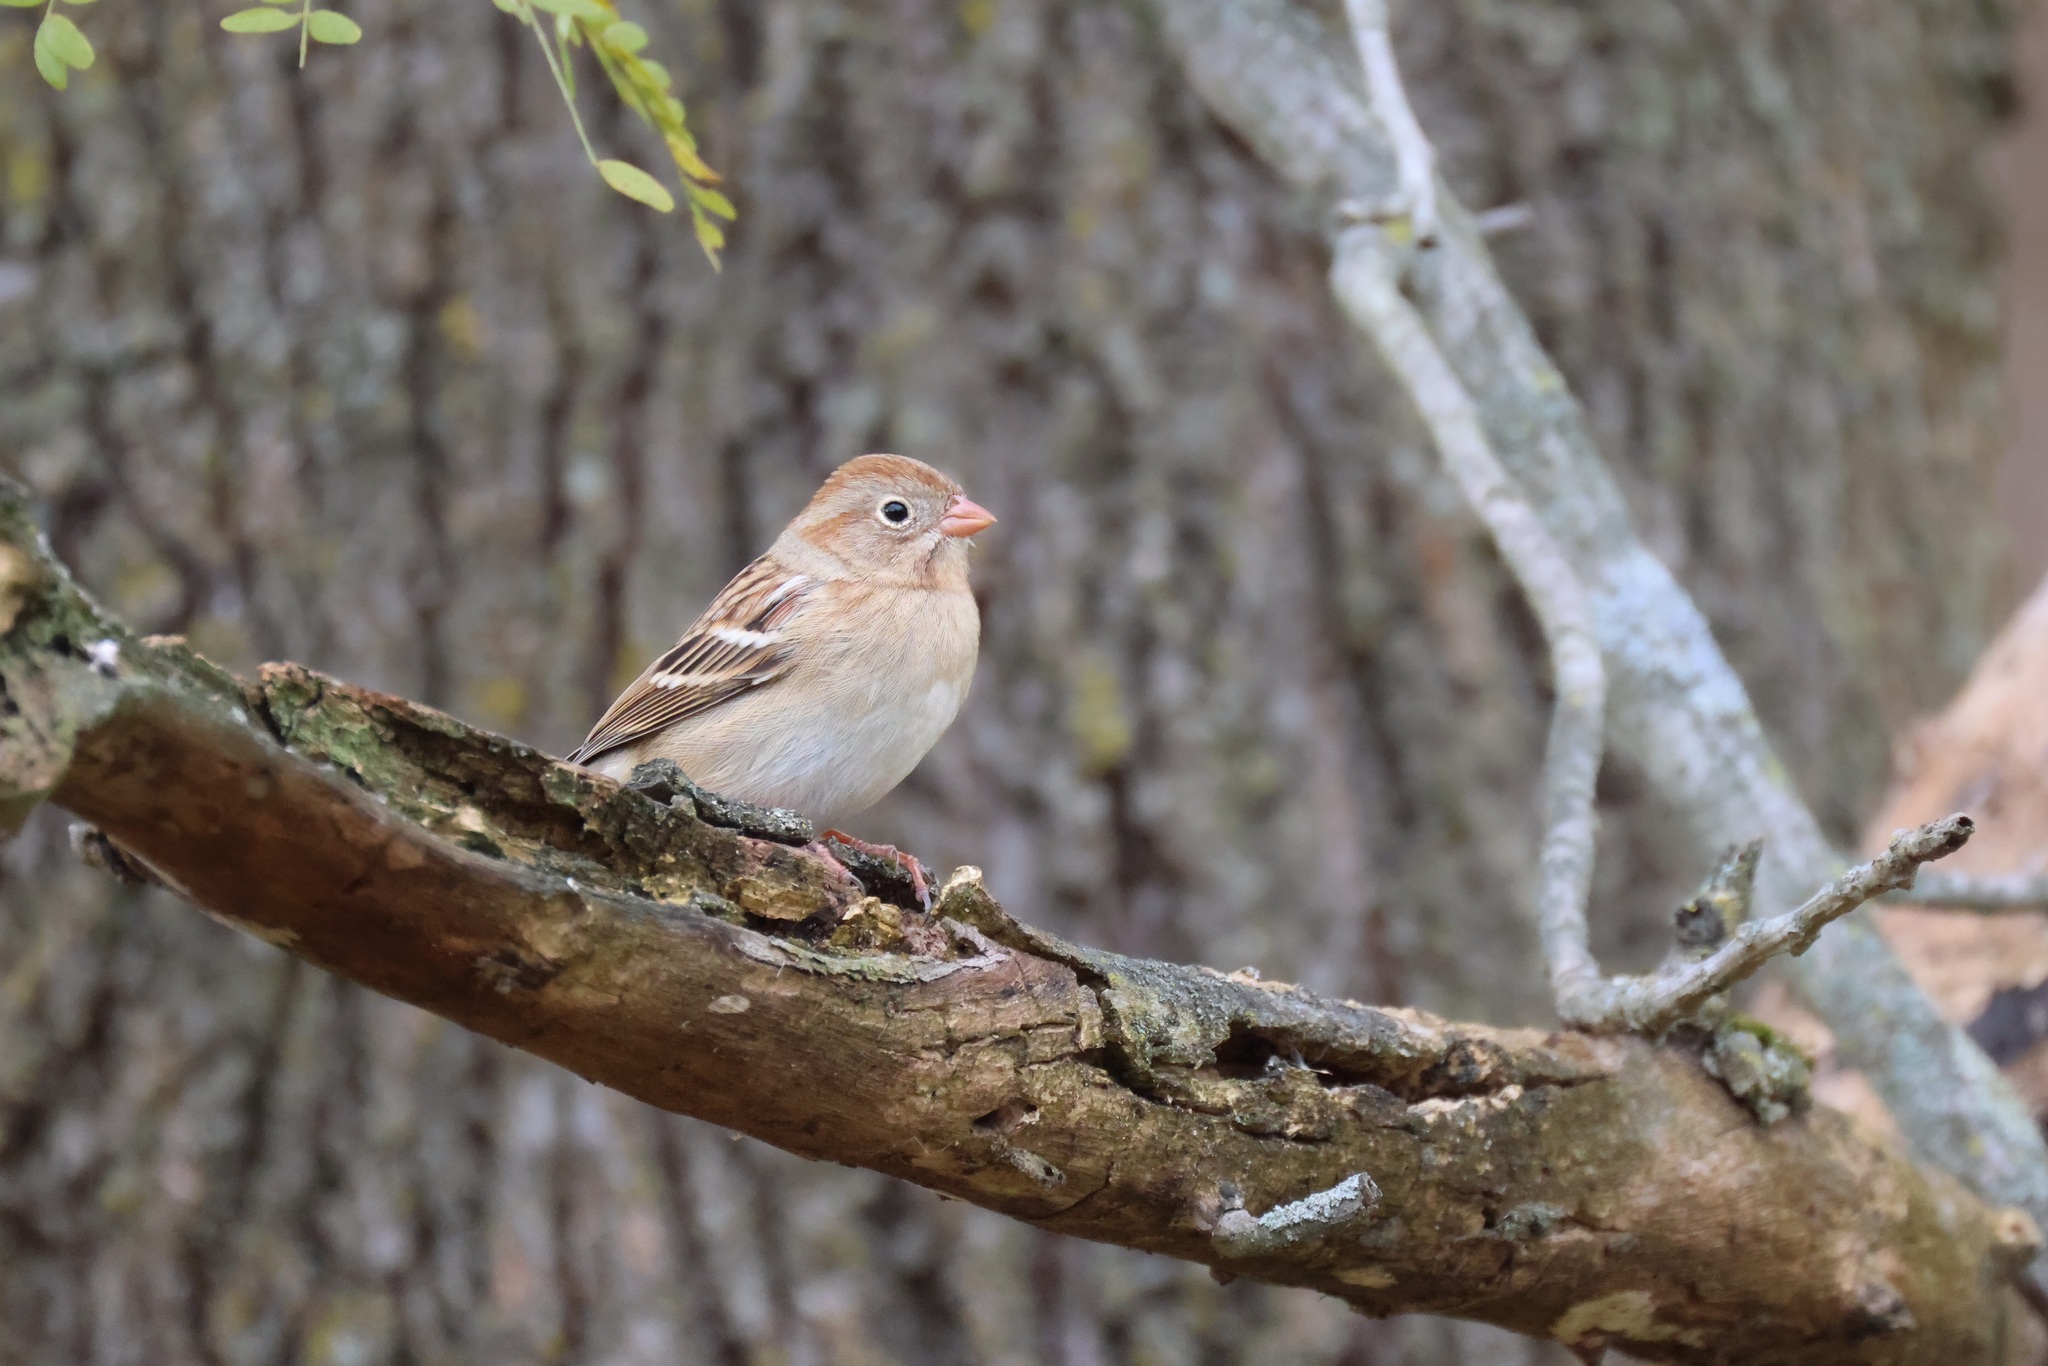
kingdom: Animalia
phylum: Chordata
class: Aves
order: Passeriformes
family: Passerellidae
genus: Spizella
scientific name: Spizella pusilla
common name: Field sparrow
